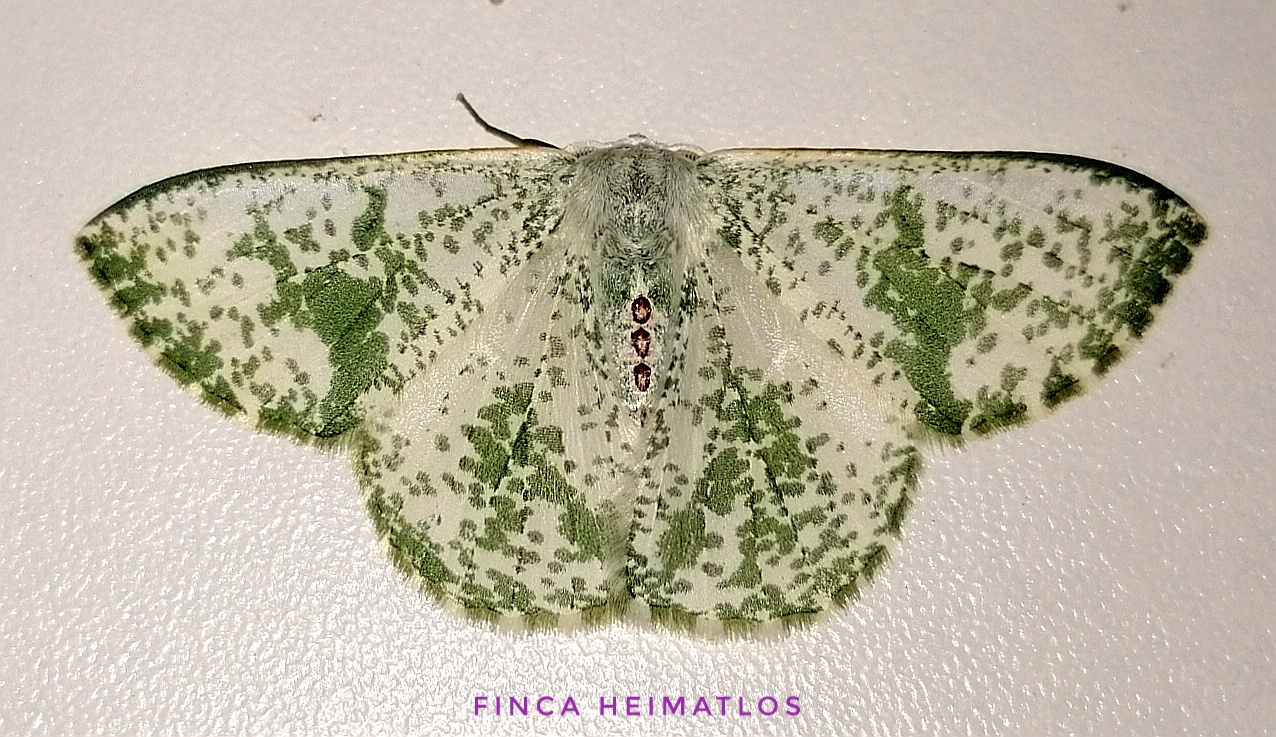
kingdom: Animalia
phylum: Arthropoda
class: Insecta
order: Lepidoptera
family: Geometridae
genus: Oospila
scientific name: Oospila sporadata
